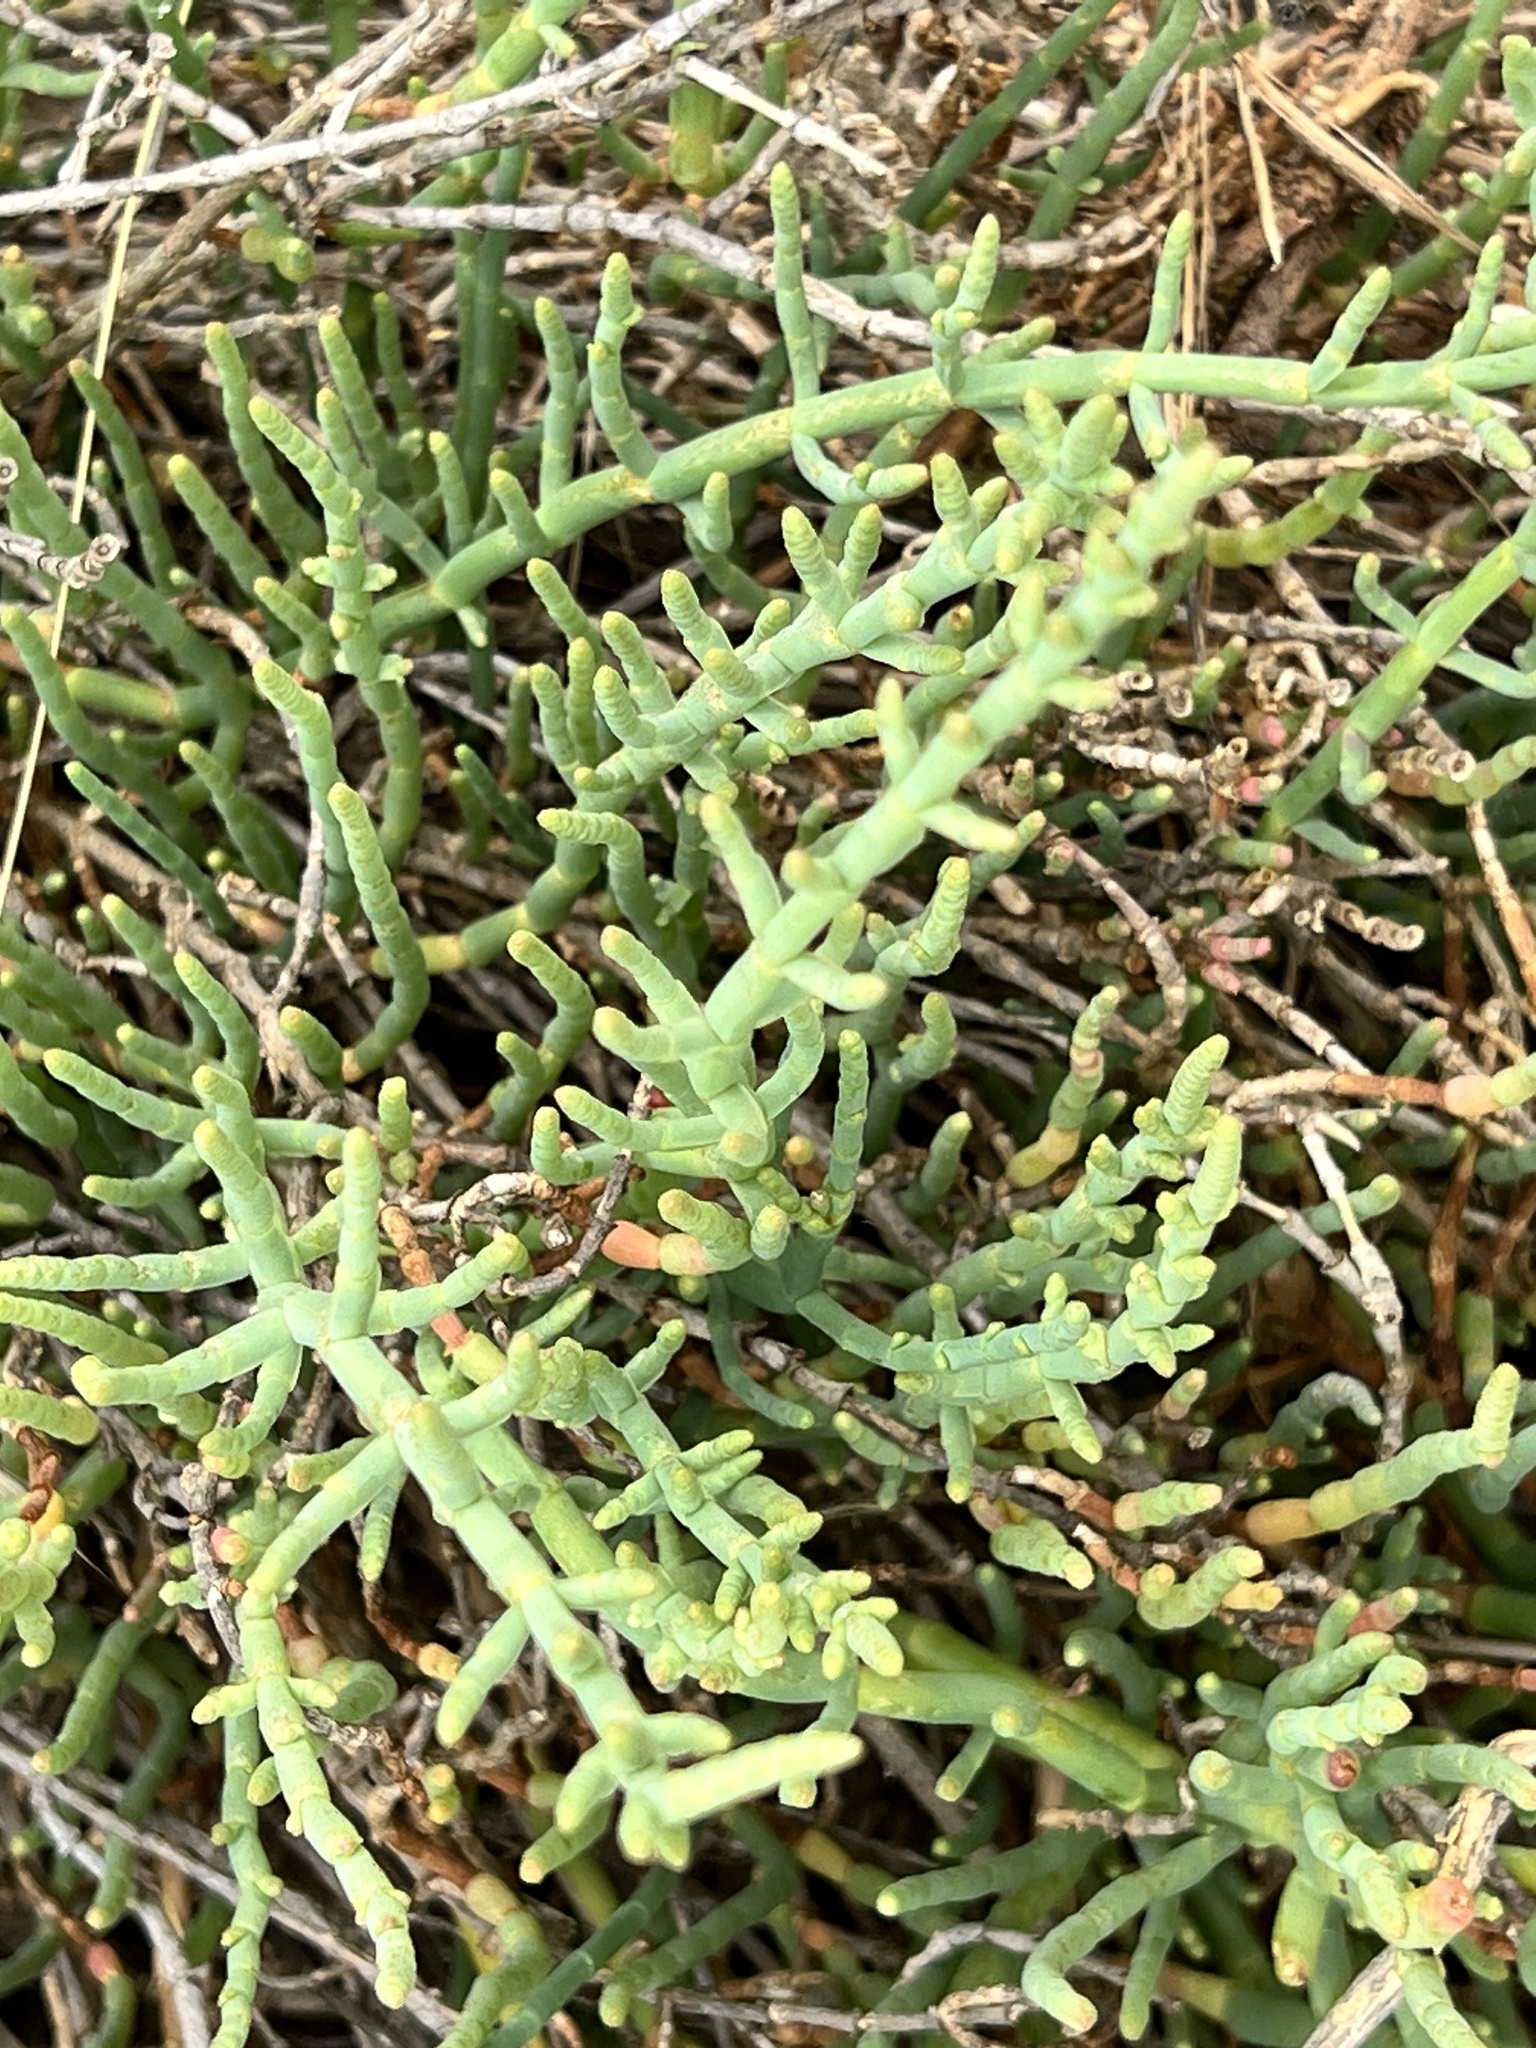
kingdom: Plantae
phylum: Tracheophyta
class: Magnoliopsida
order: Caryophyllales
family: Amaranthaceae
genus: Salicornia
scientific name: Salicornia pacifica
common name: Pacific glasswort
